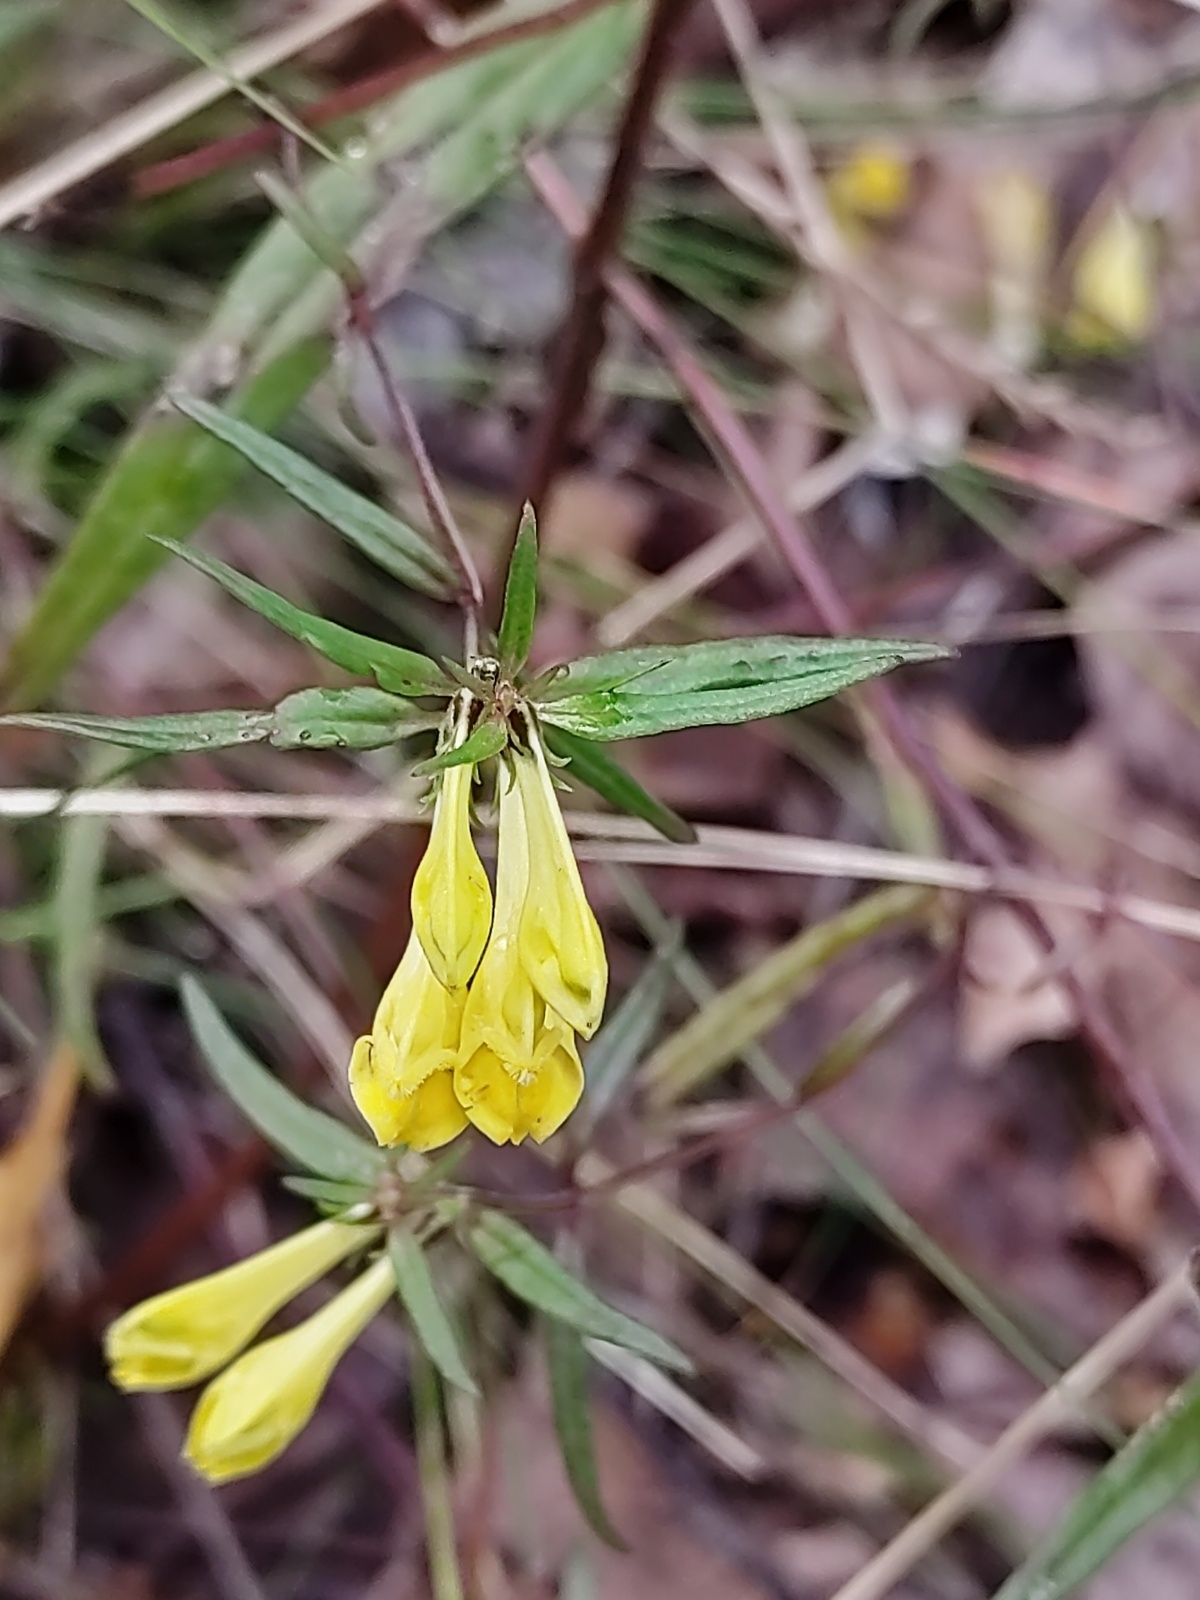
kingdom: Plantae
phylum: Tracheophyta
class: Magnoliopsida
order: Lamiales
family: Orobanchaceae
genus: Melampyrum
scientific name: Melampyrum pratense
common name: Common cow-wheat
